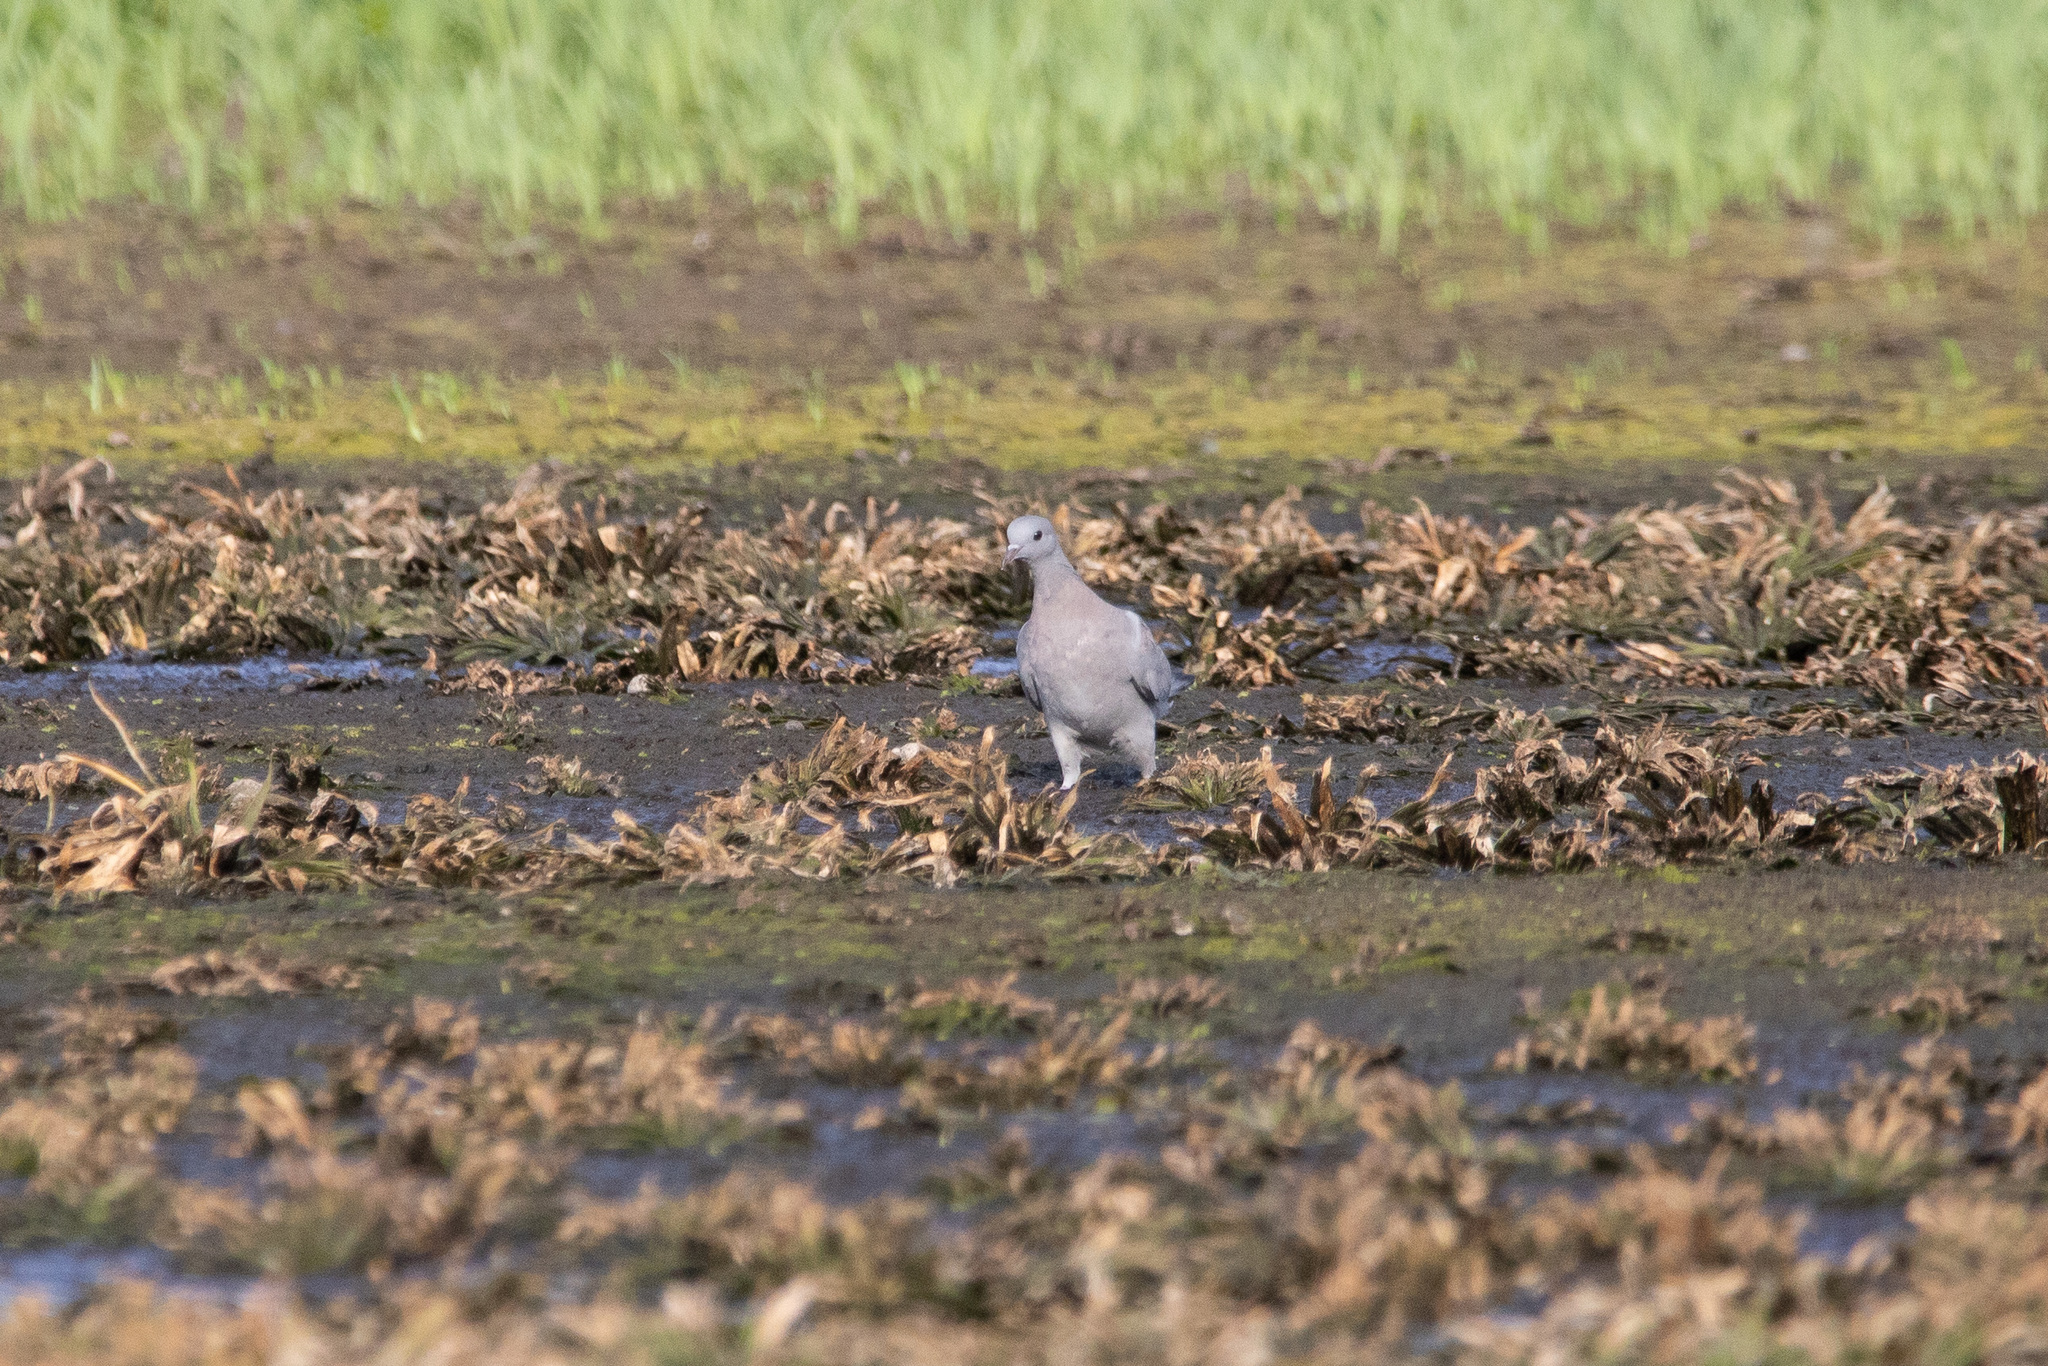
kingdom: Animalia
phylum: Chordata
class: Aves
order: Columbiformes
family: Columbidae
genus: Columba
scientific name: Columba oenas
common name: Stock dove
